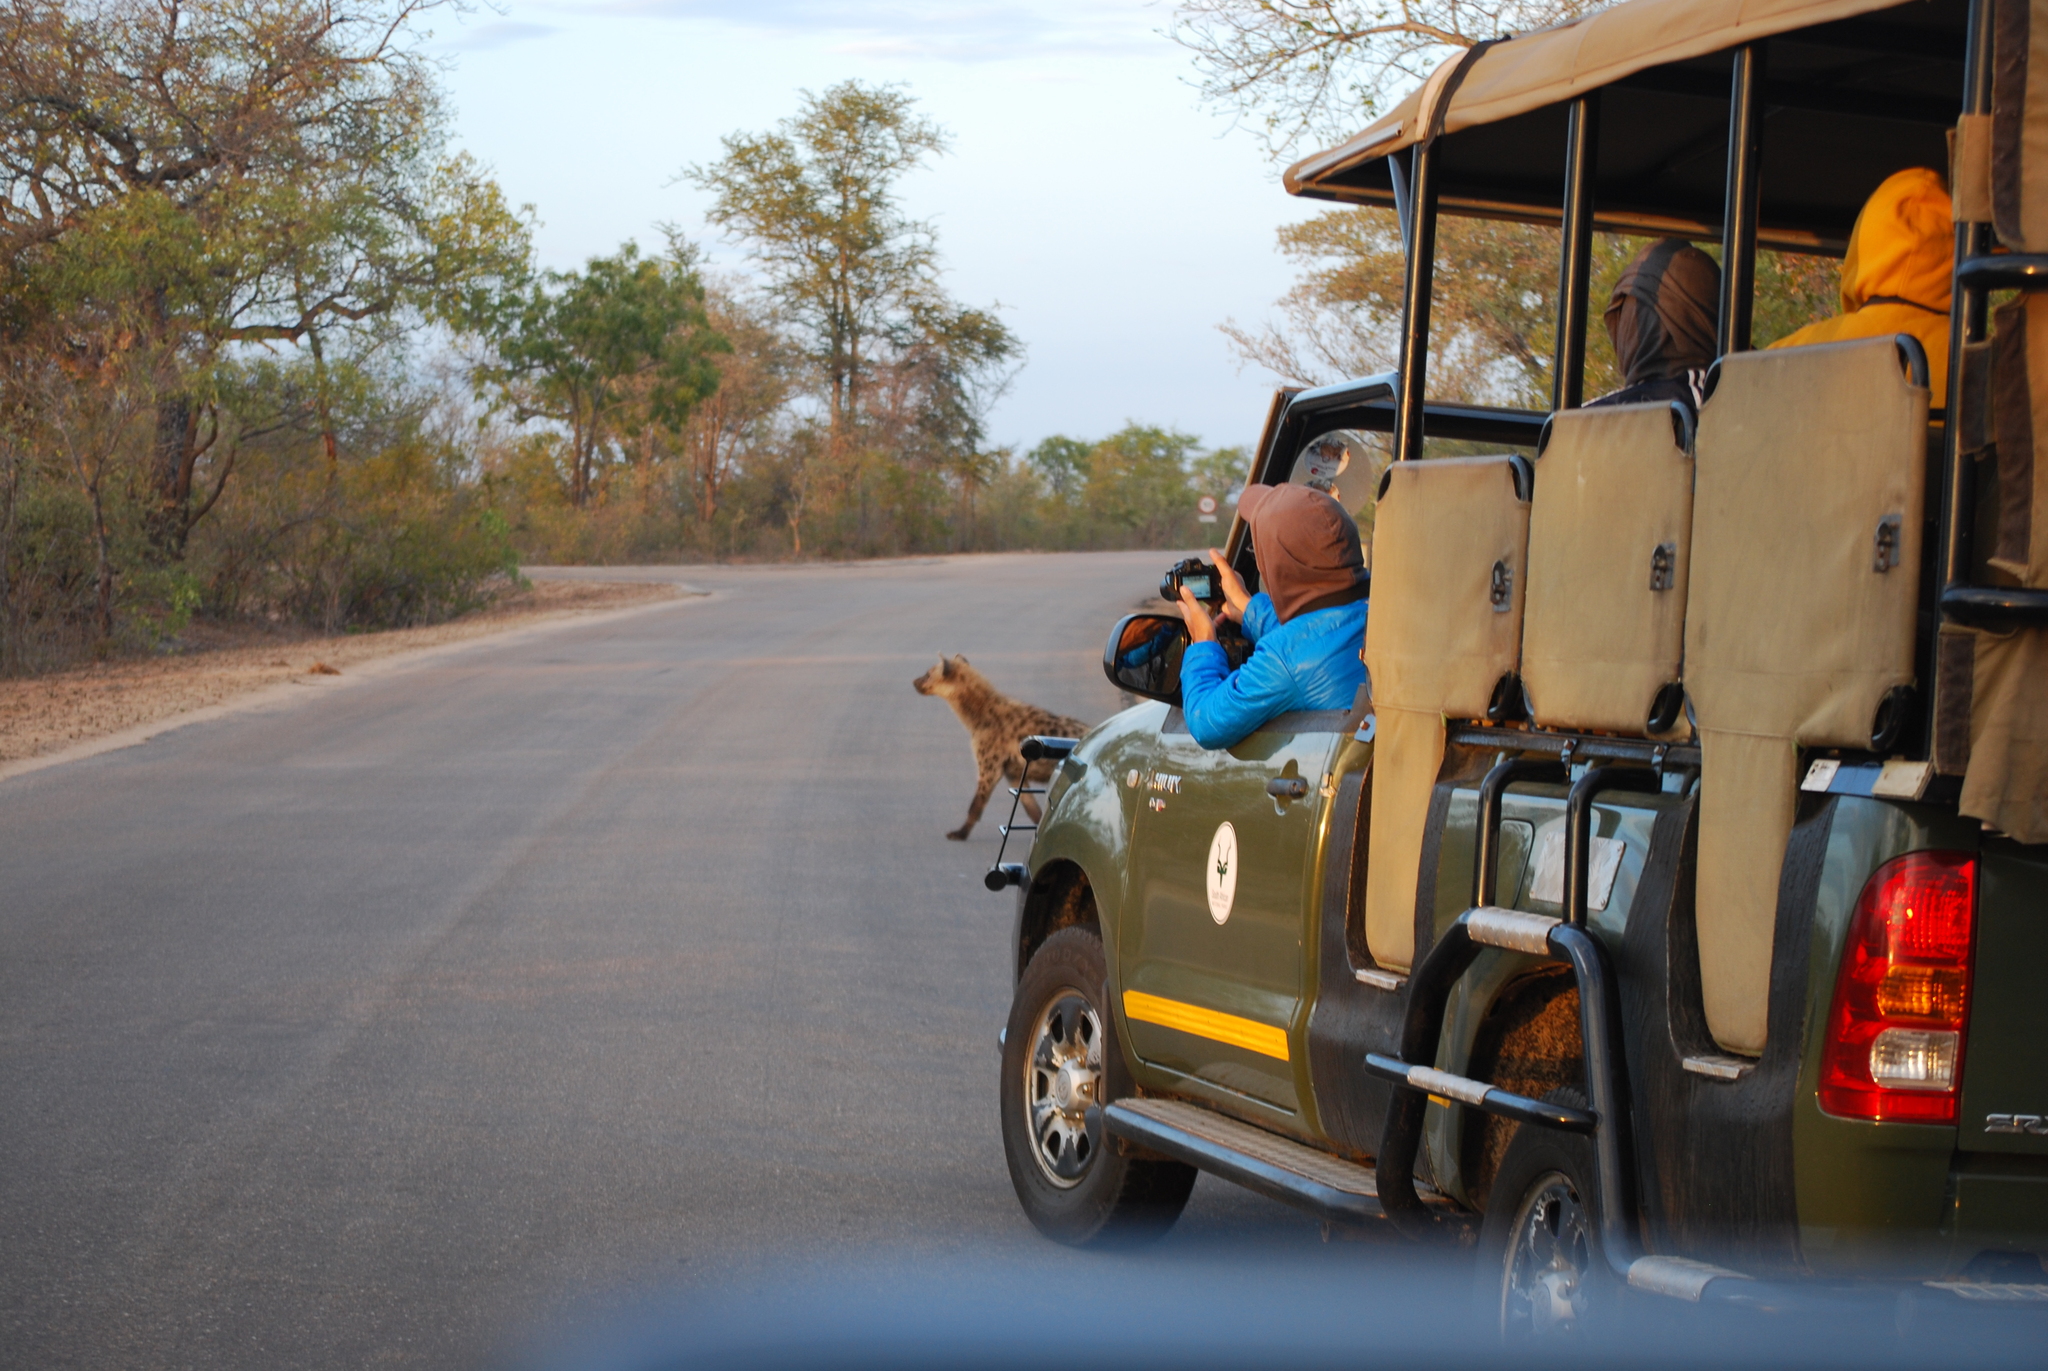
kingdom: Animalia
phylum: Chordata
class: Mammalia
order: Carnivora
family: Hyaenidae
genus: Crocuta
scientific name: Crocuta crocuta
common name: Spotted hyaena
